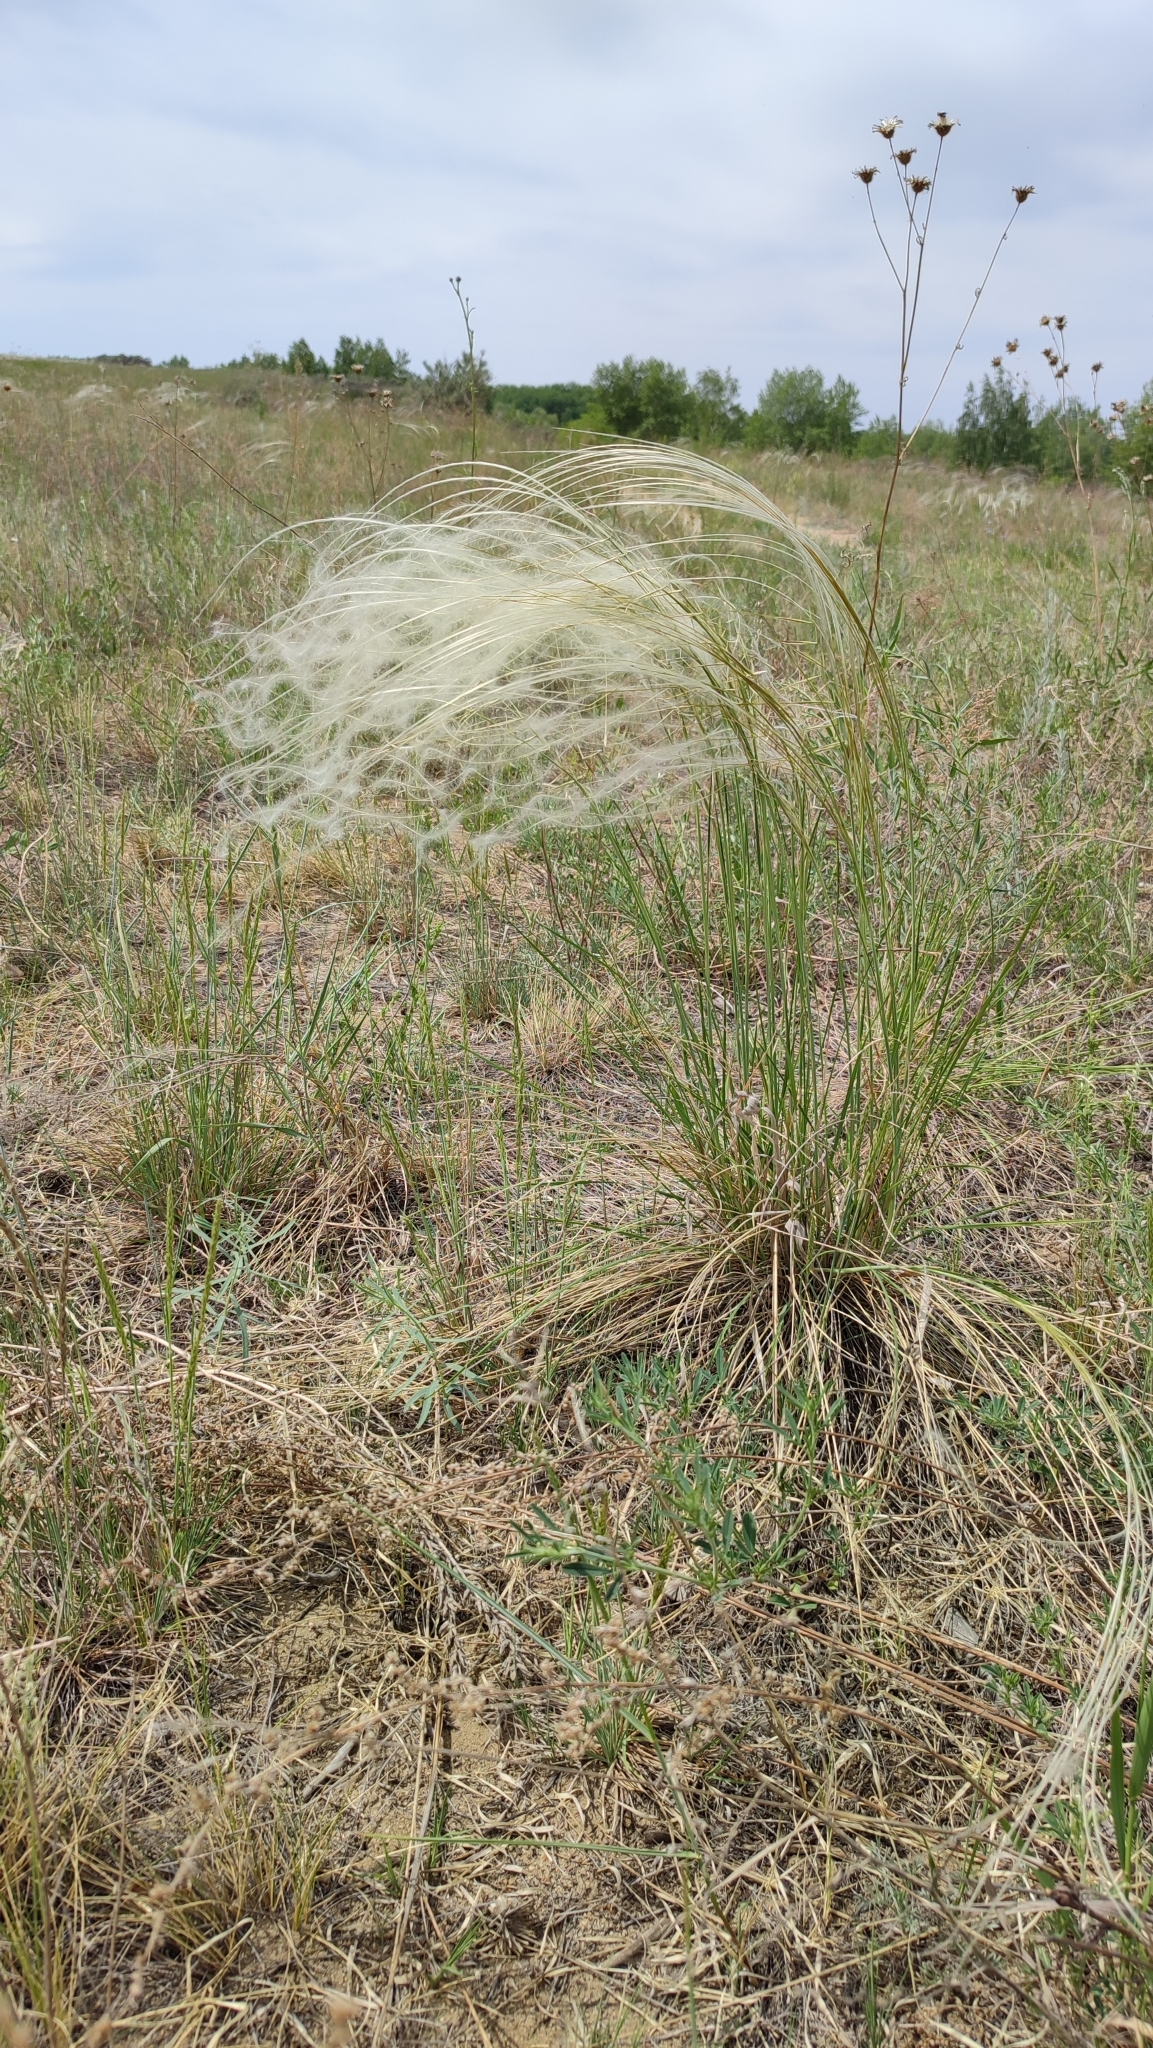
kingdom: Plantae
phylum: Tracheophyta
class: Liliopsida
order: Poales
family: Poaceae
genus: Stipa
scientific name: Stipa pennata
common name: European feather grass
